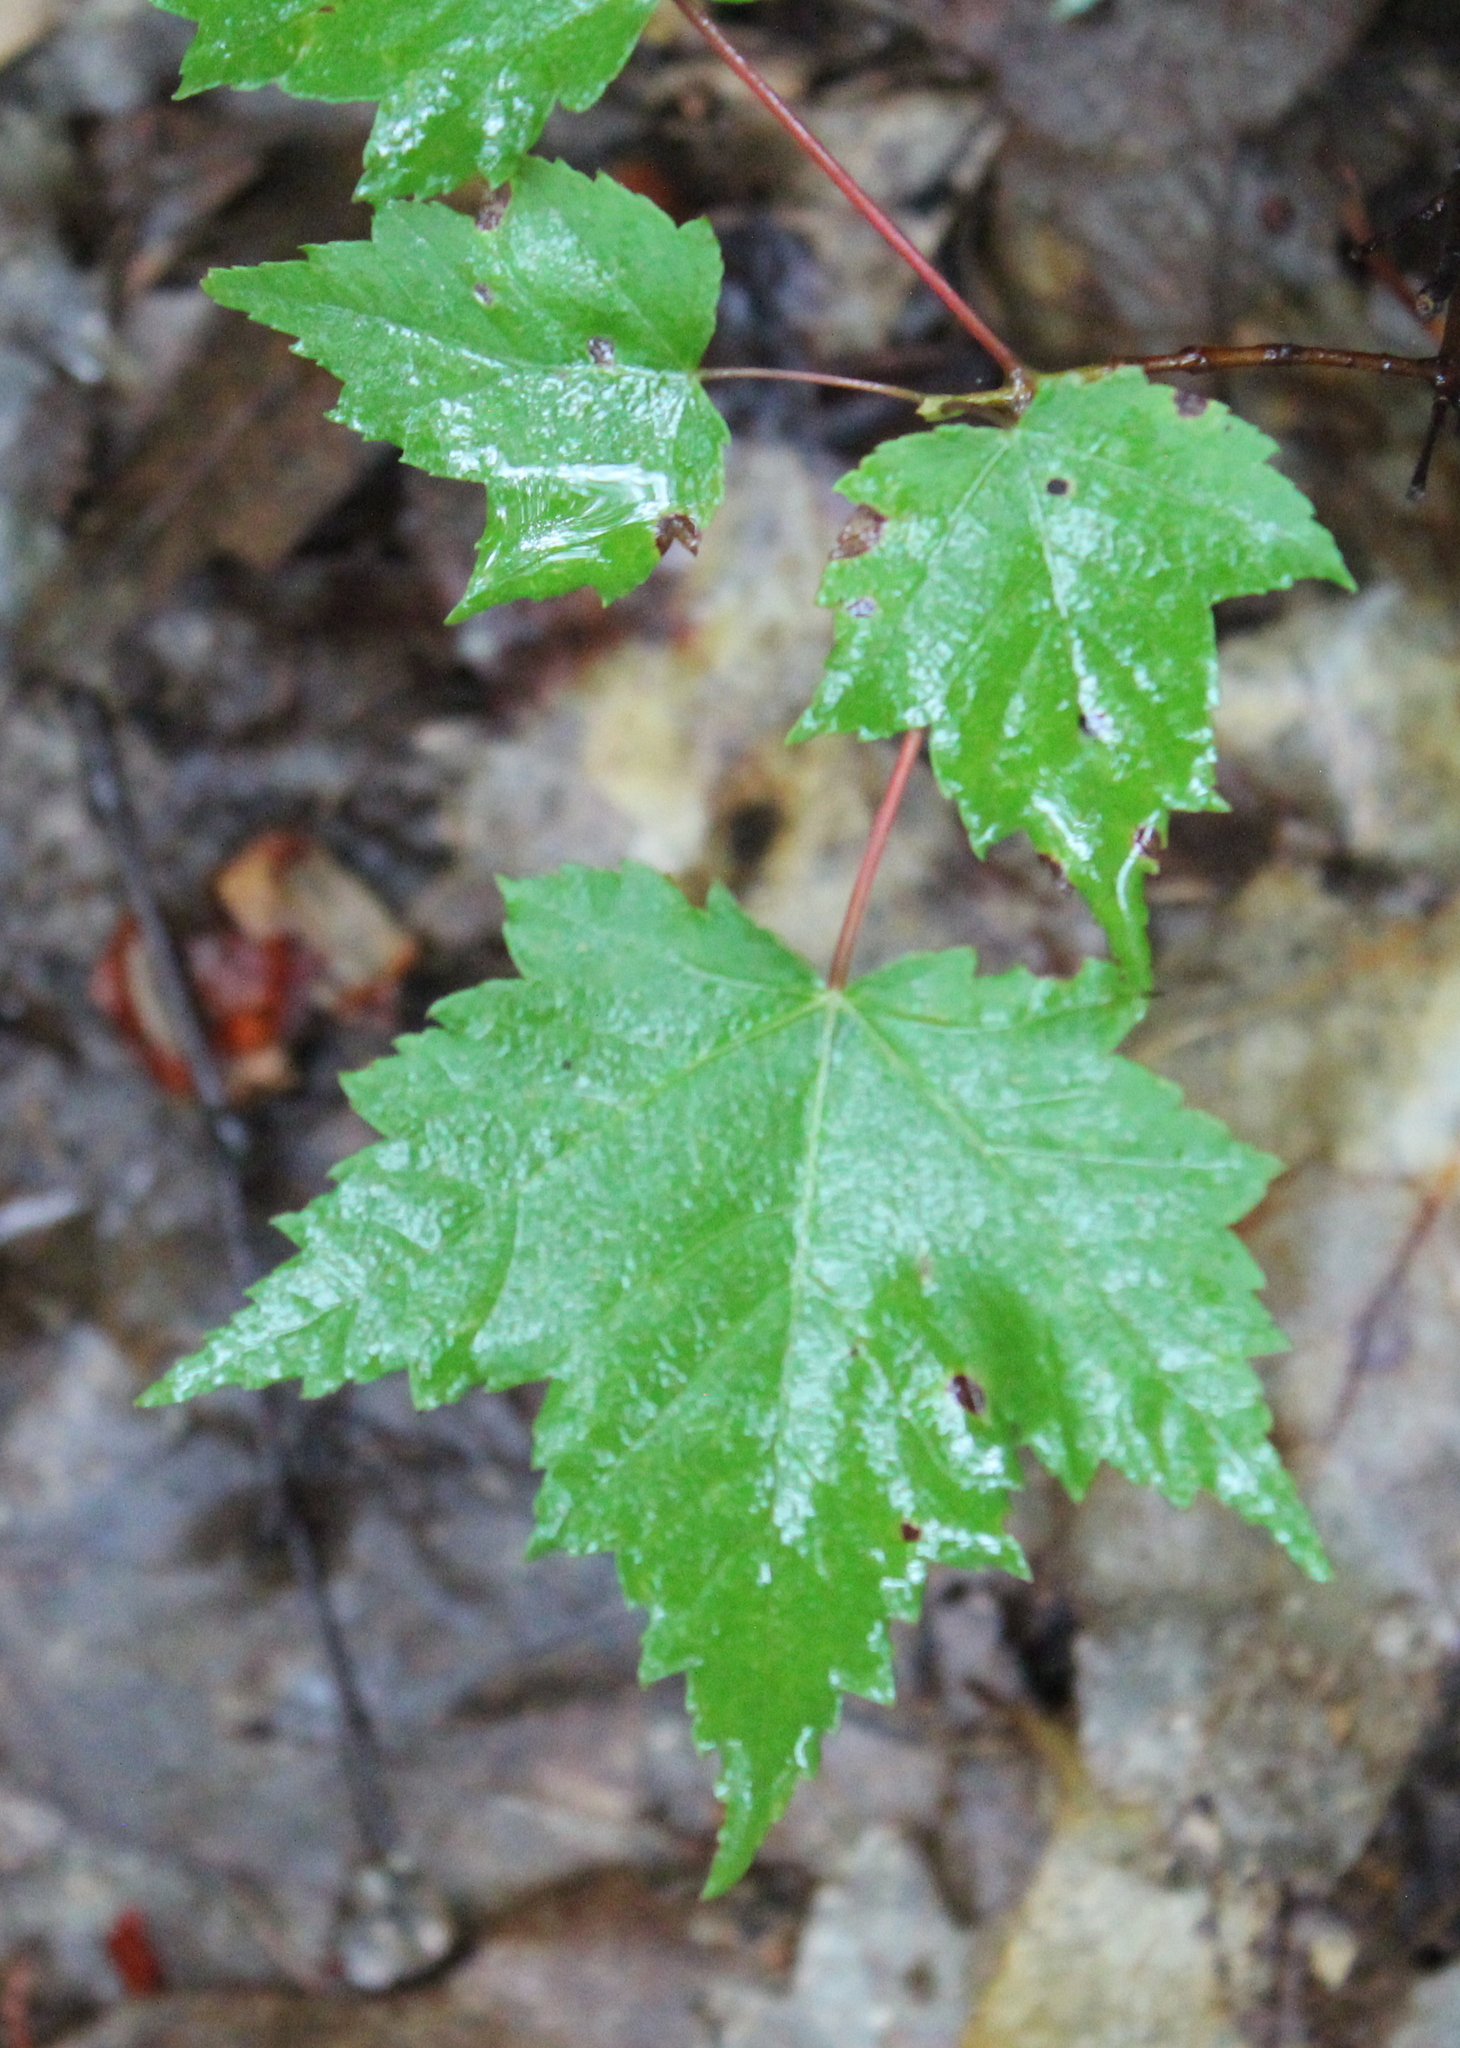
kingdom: Plantae
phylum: Tracheophyta
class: Magnoliopsida
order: Sapindales
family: Sapindaceae
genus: Acer
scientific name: Acer rubrum
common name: Red maple
